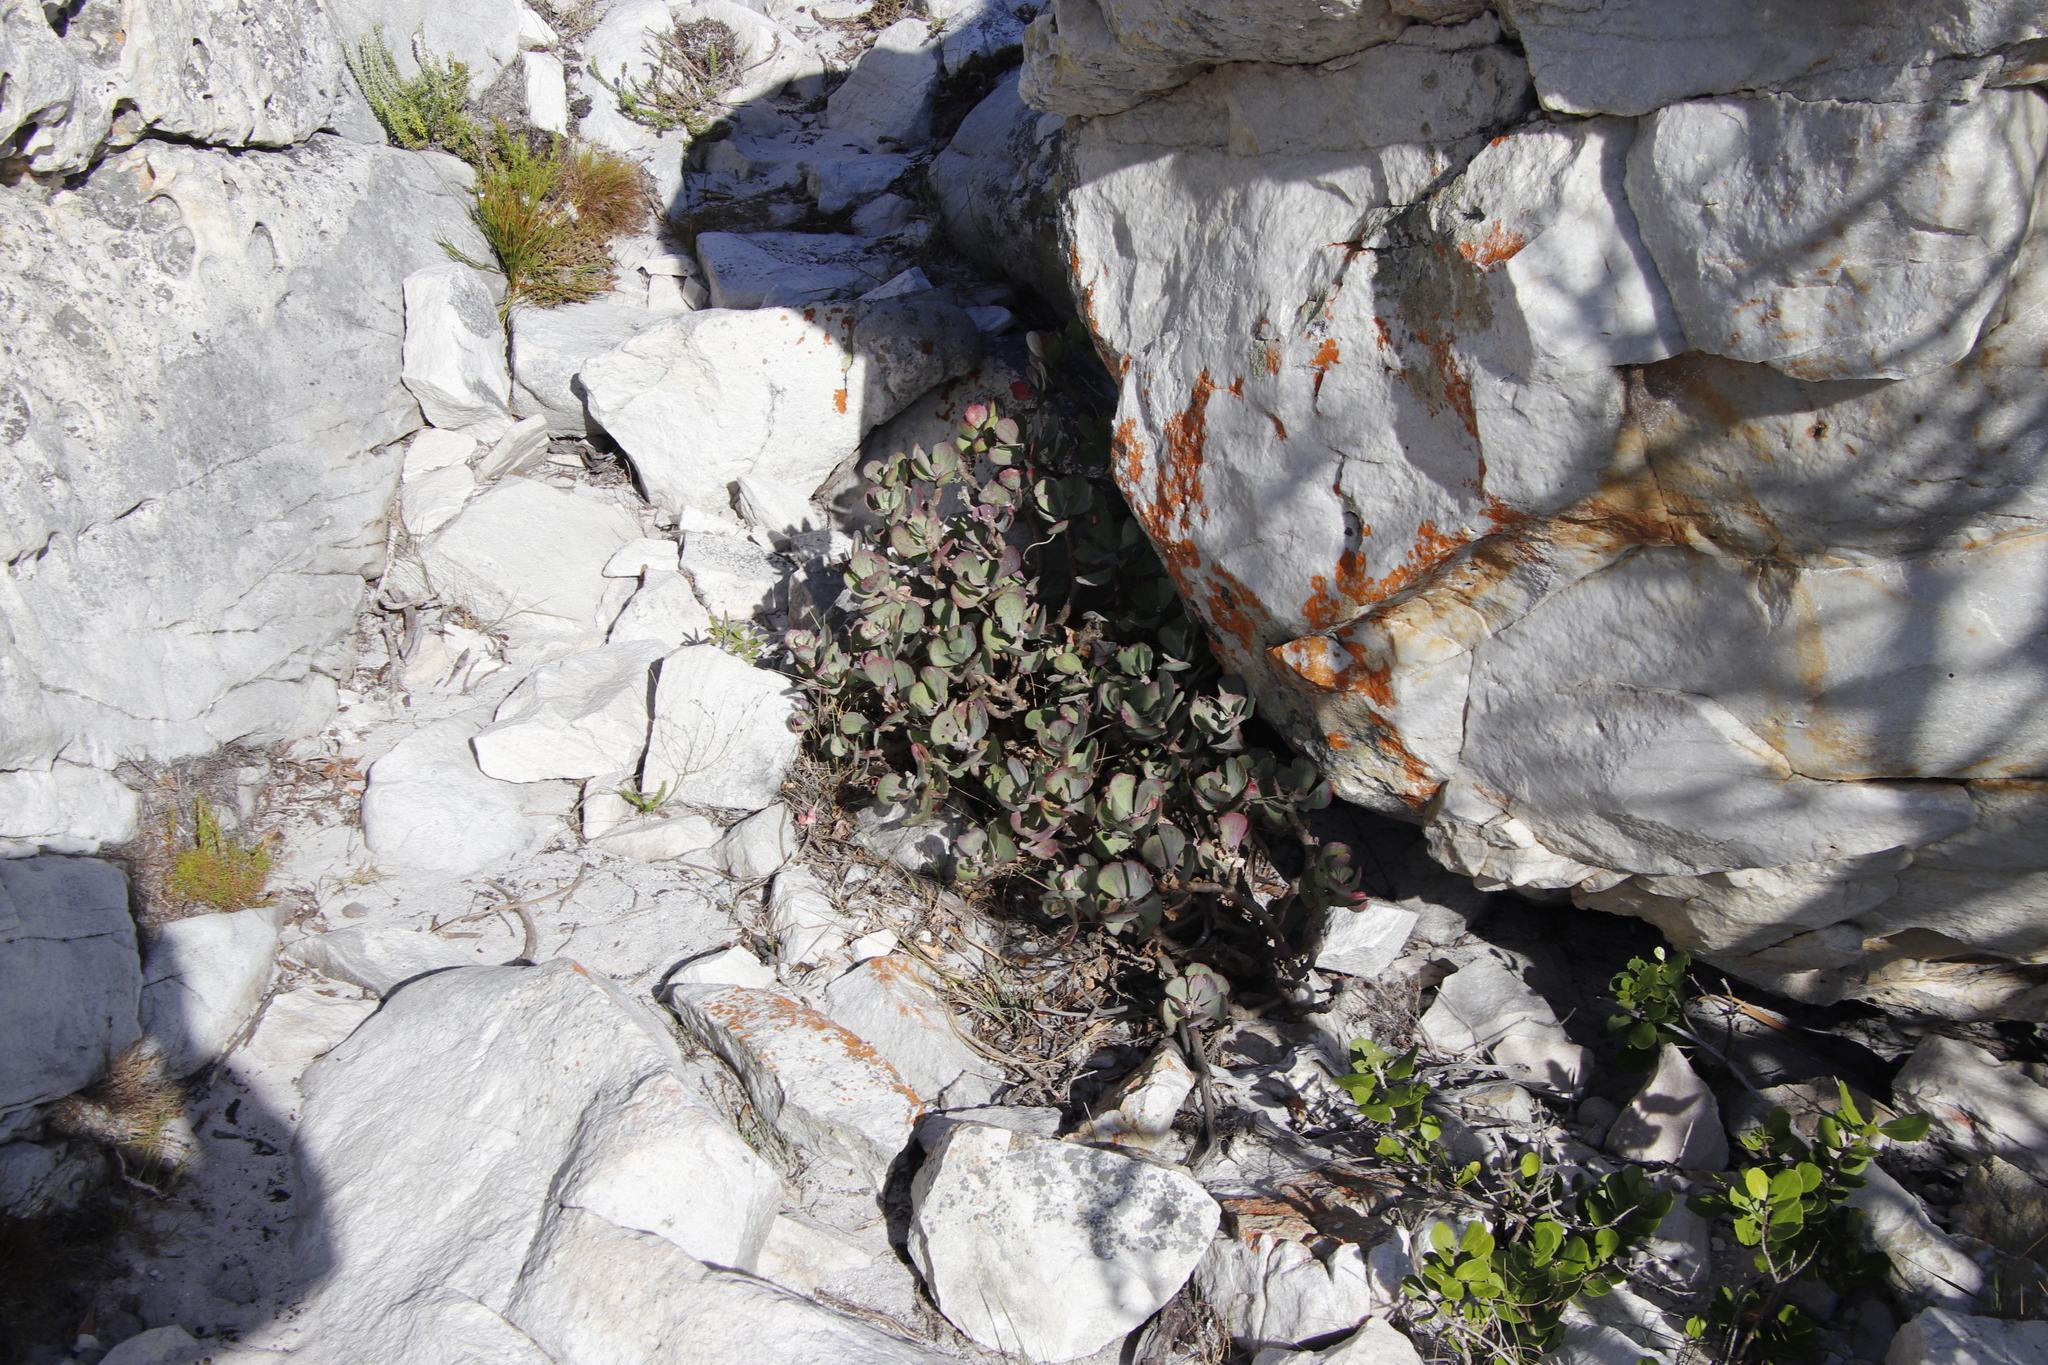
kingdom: Plantae
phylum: Tracheophyta
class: Magnoliopsida
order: Saxifragales
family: Crassulaceae
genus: Cotyledon
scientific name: Cotyledon orbiculata
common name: Pig's ear
